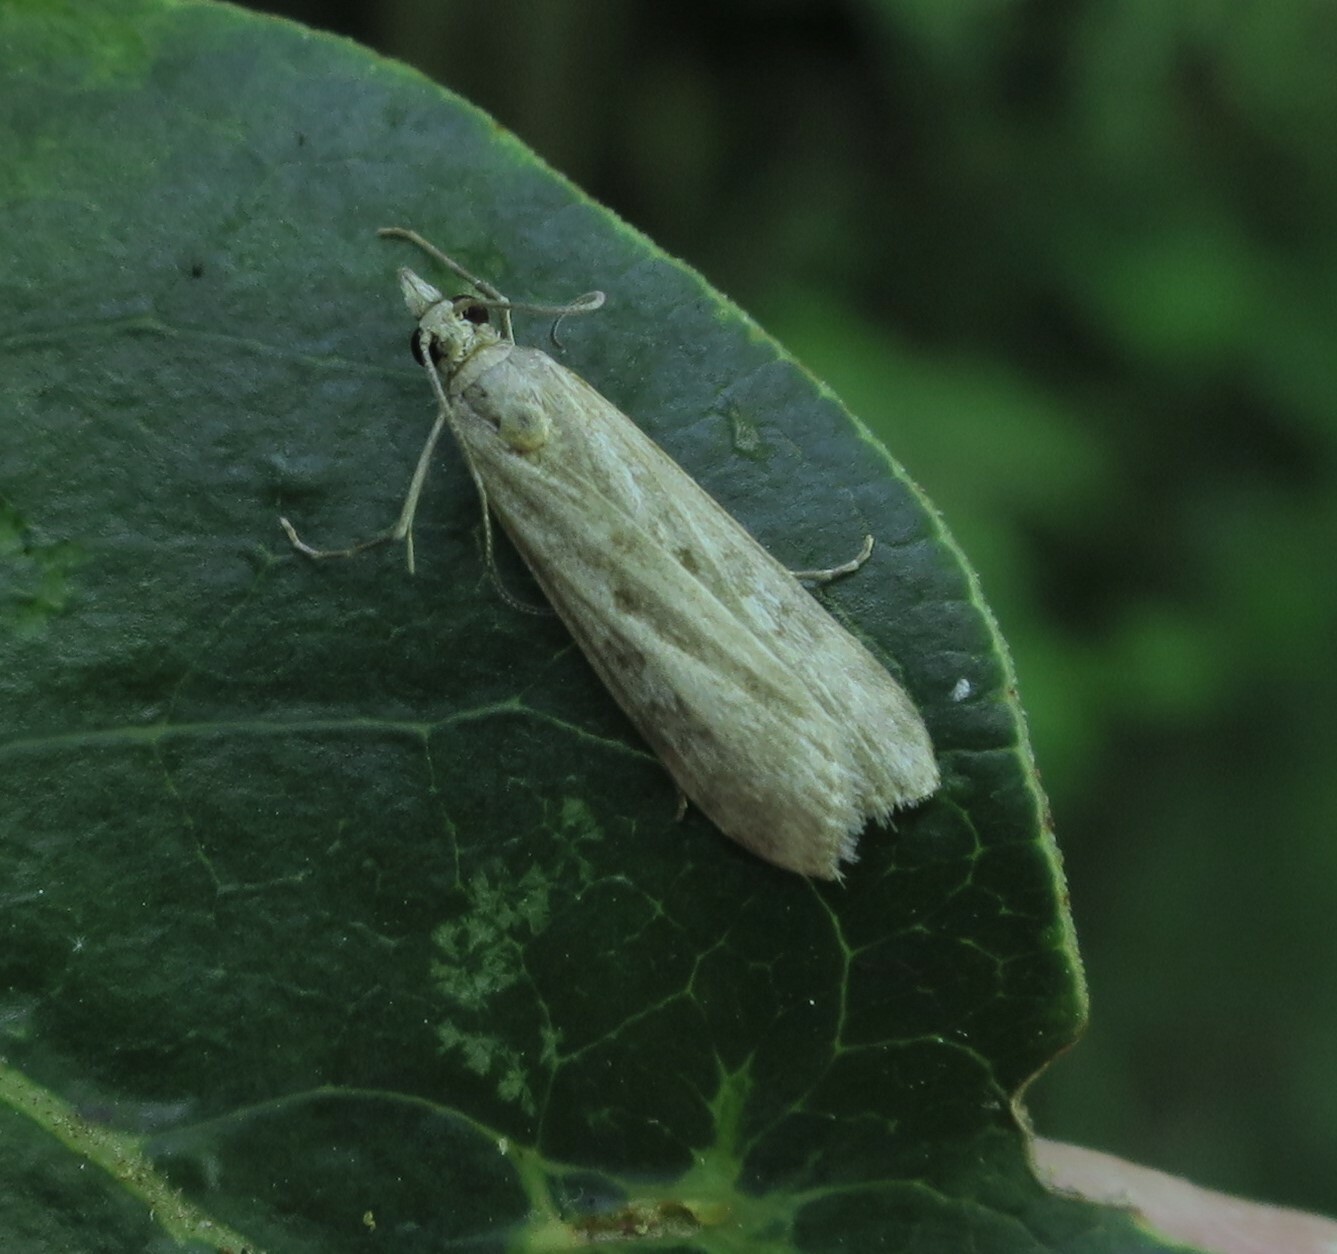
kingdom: Animalia
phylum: Arthropoda
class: Insecta
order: Lepidoptera
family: Crambidae
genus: Eudonia
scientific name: Eudonia leptalea
